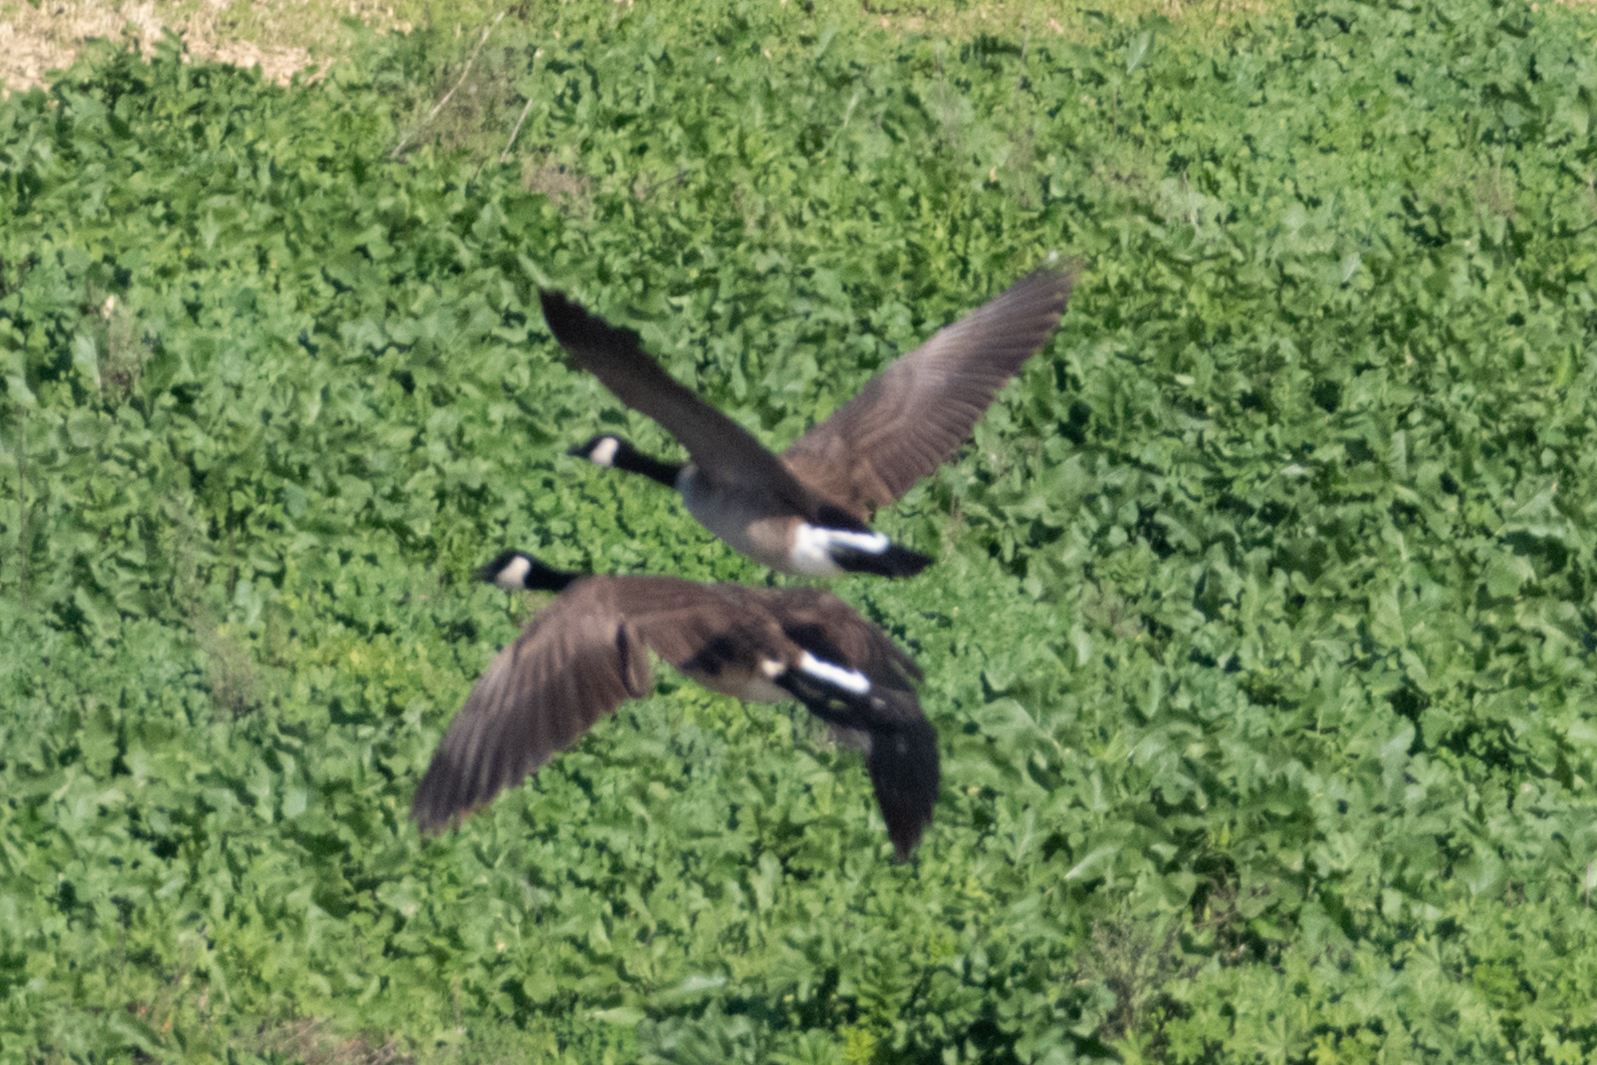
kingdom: Animalia
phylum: Chordata
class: Aves
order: Anseriformes
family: Anatidae
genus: Branta
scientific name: Branta canadensis
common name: Canada goose
